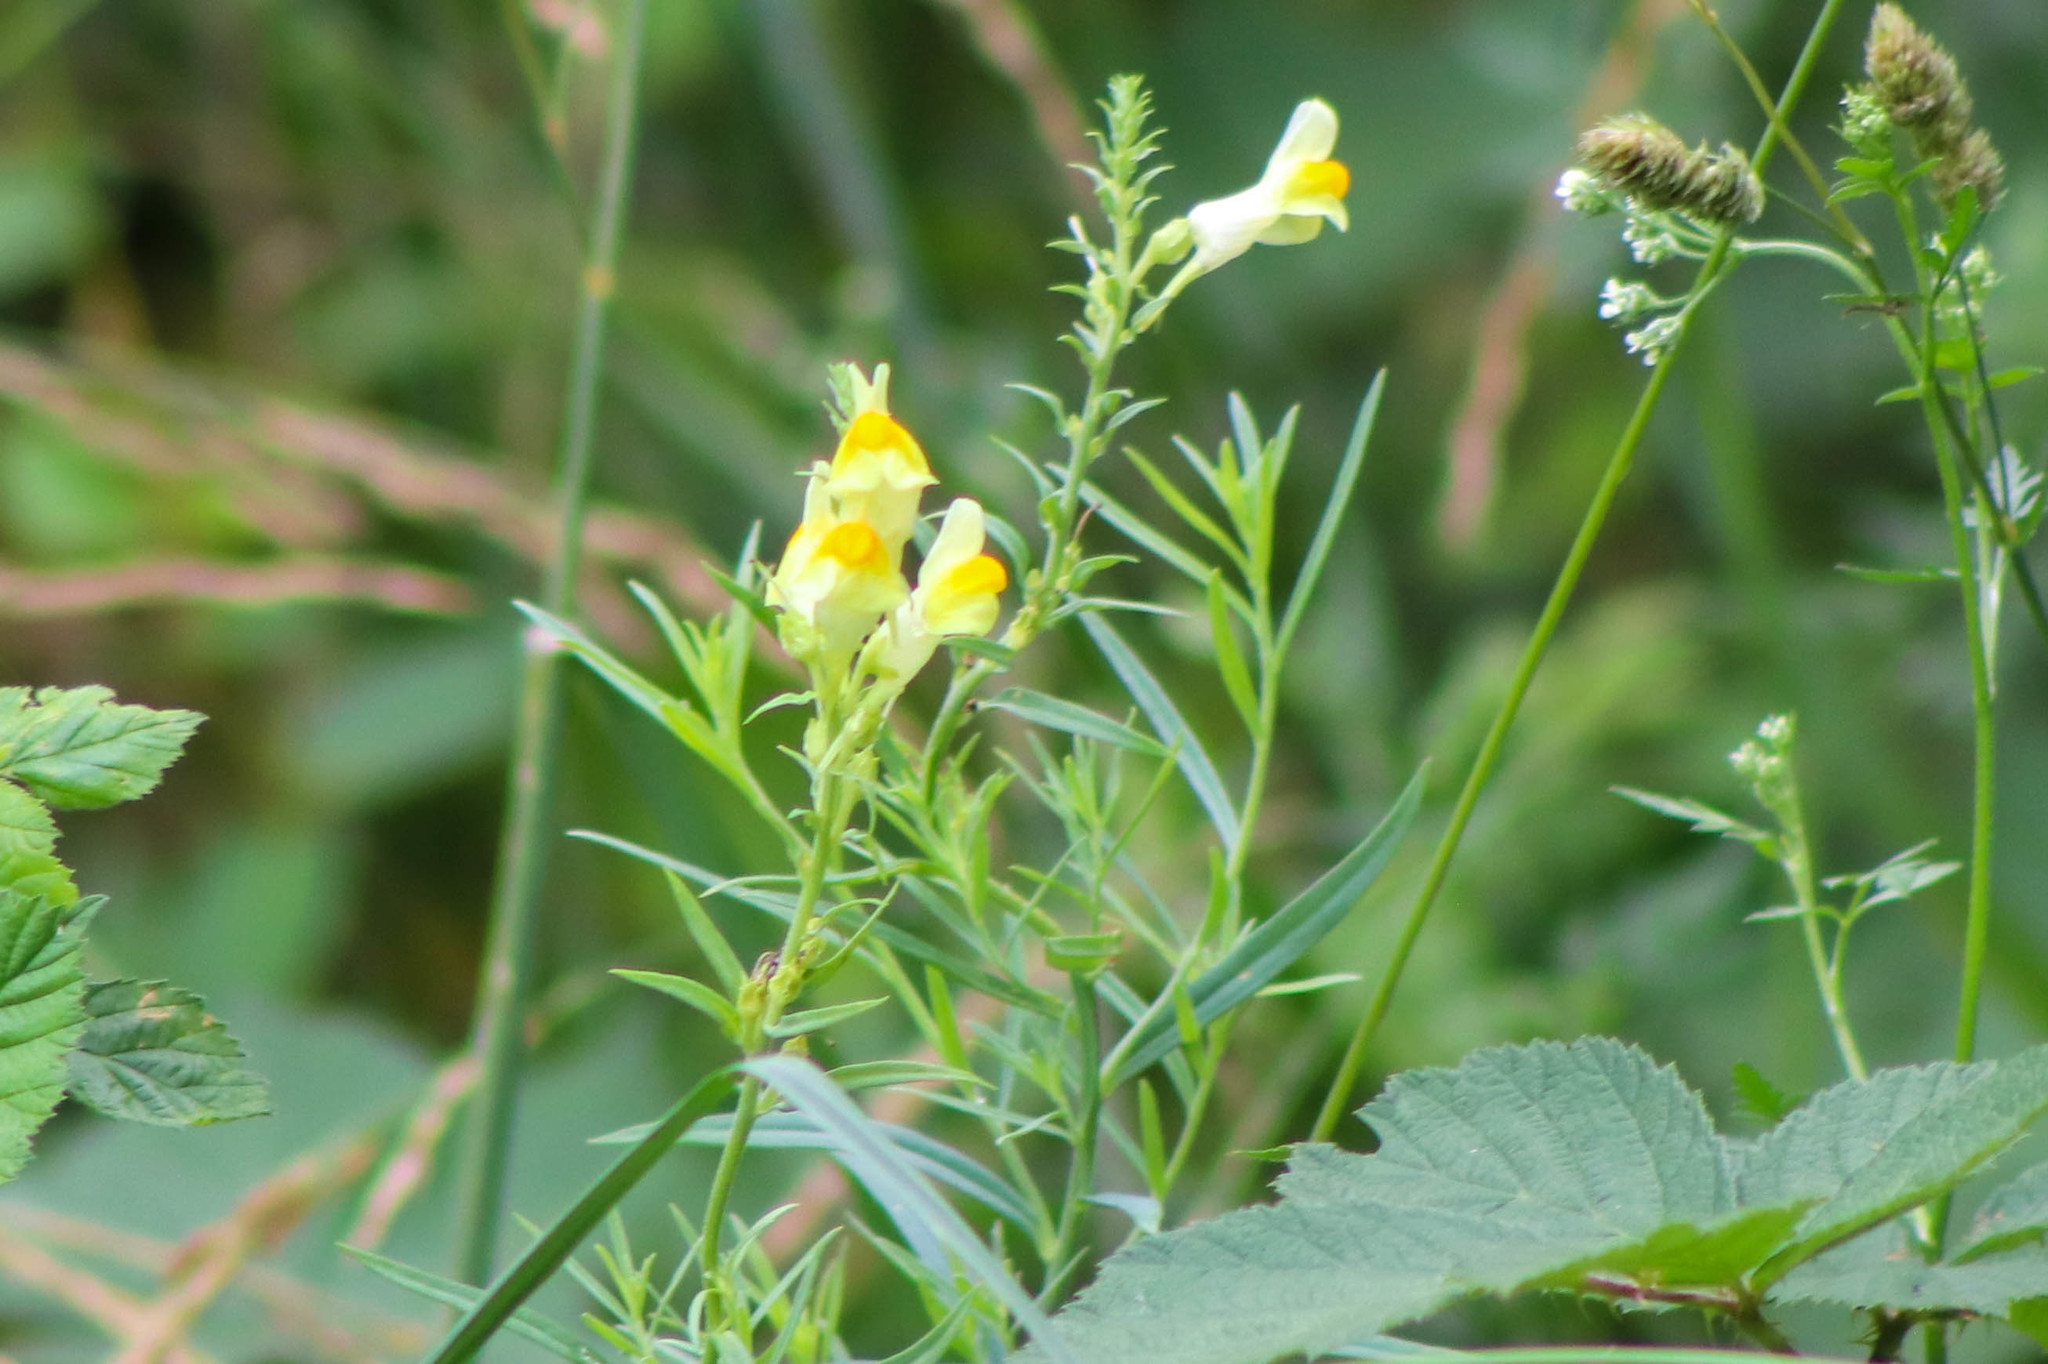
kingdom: Plantae
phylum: Tracheophyta
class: Magnoliopsida
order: Lamiales
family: Plantaginaceae
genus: Linaria
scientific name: Linaria vulgaris
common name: Butter and eggs
